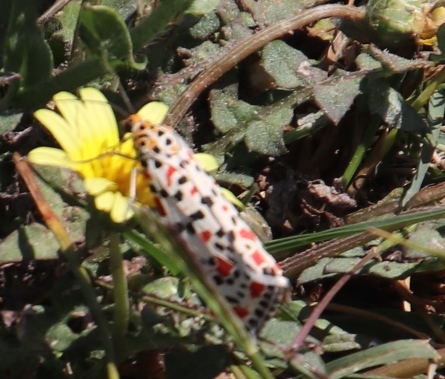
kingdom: Animalia
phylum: Arthropoda
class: Insecta
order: Lepidoptera
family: Erebidae
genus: Utetheisa
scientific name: Utetheisa pulchella
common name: Crimson speckled
